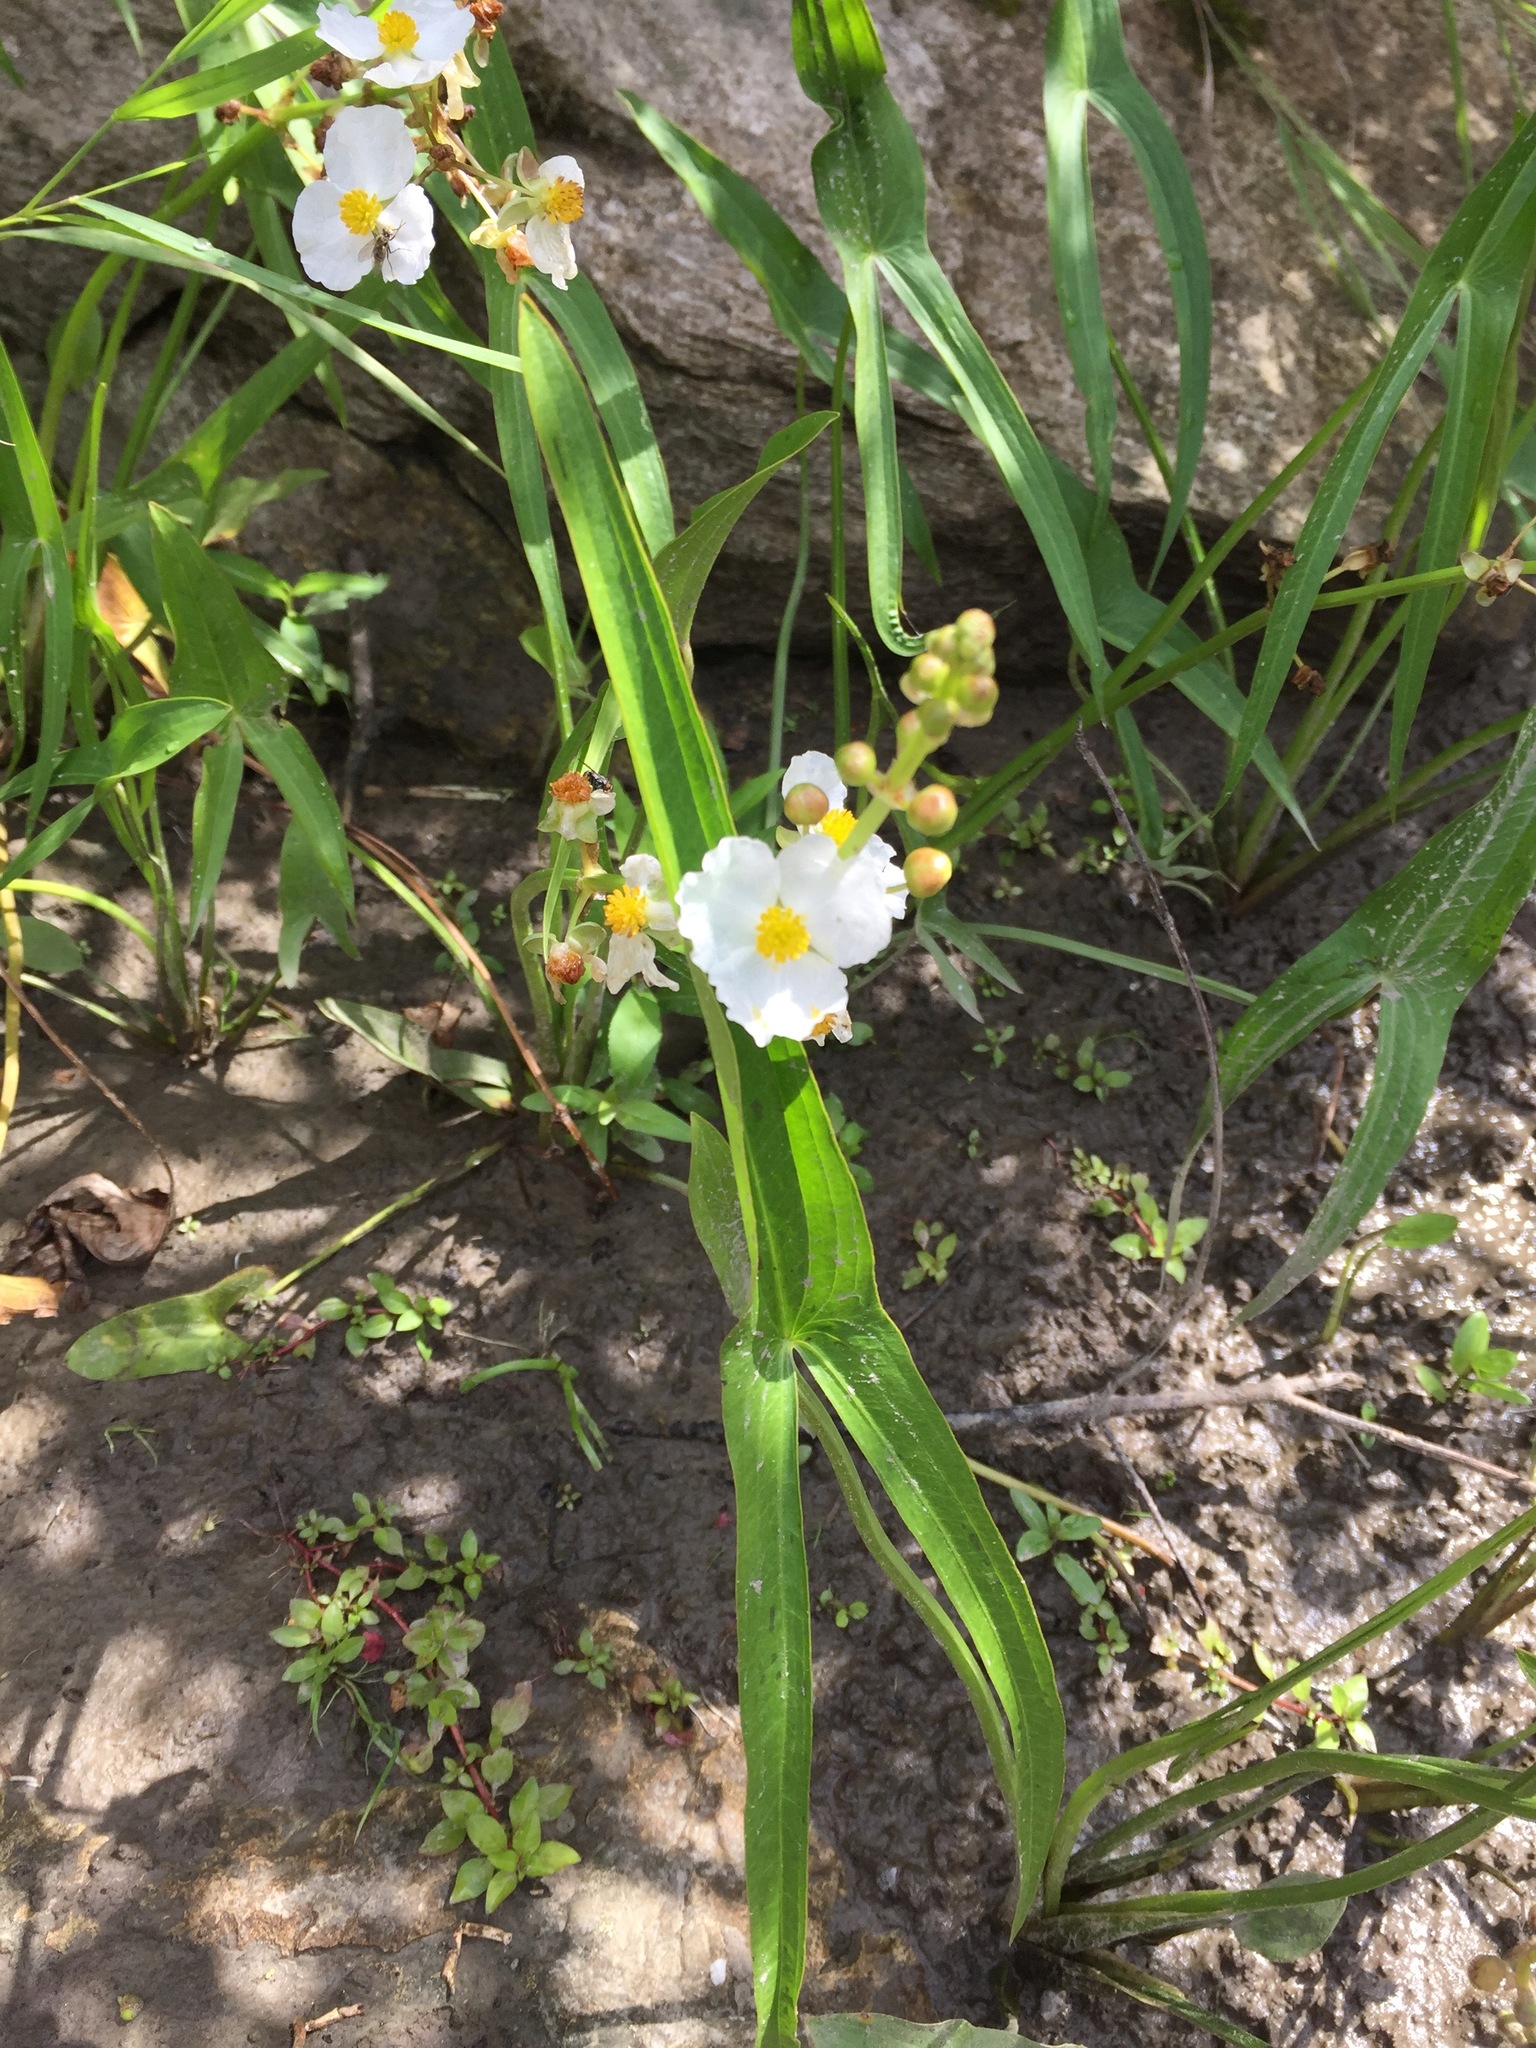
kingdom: Plantae
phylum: Tracheophyta
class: Liliopsida
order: Alismatales
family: Alismataceae
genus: Sagittaria
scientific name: Sagittaria latifolia
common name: Duck-potato
